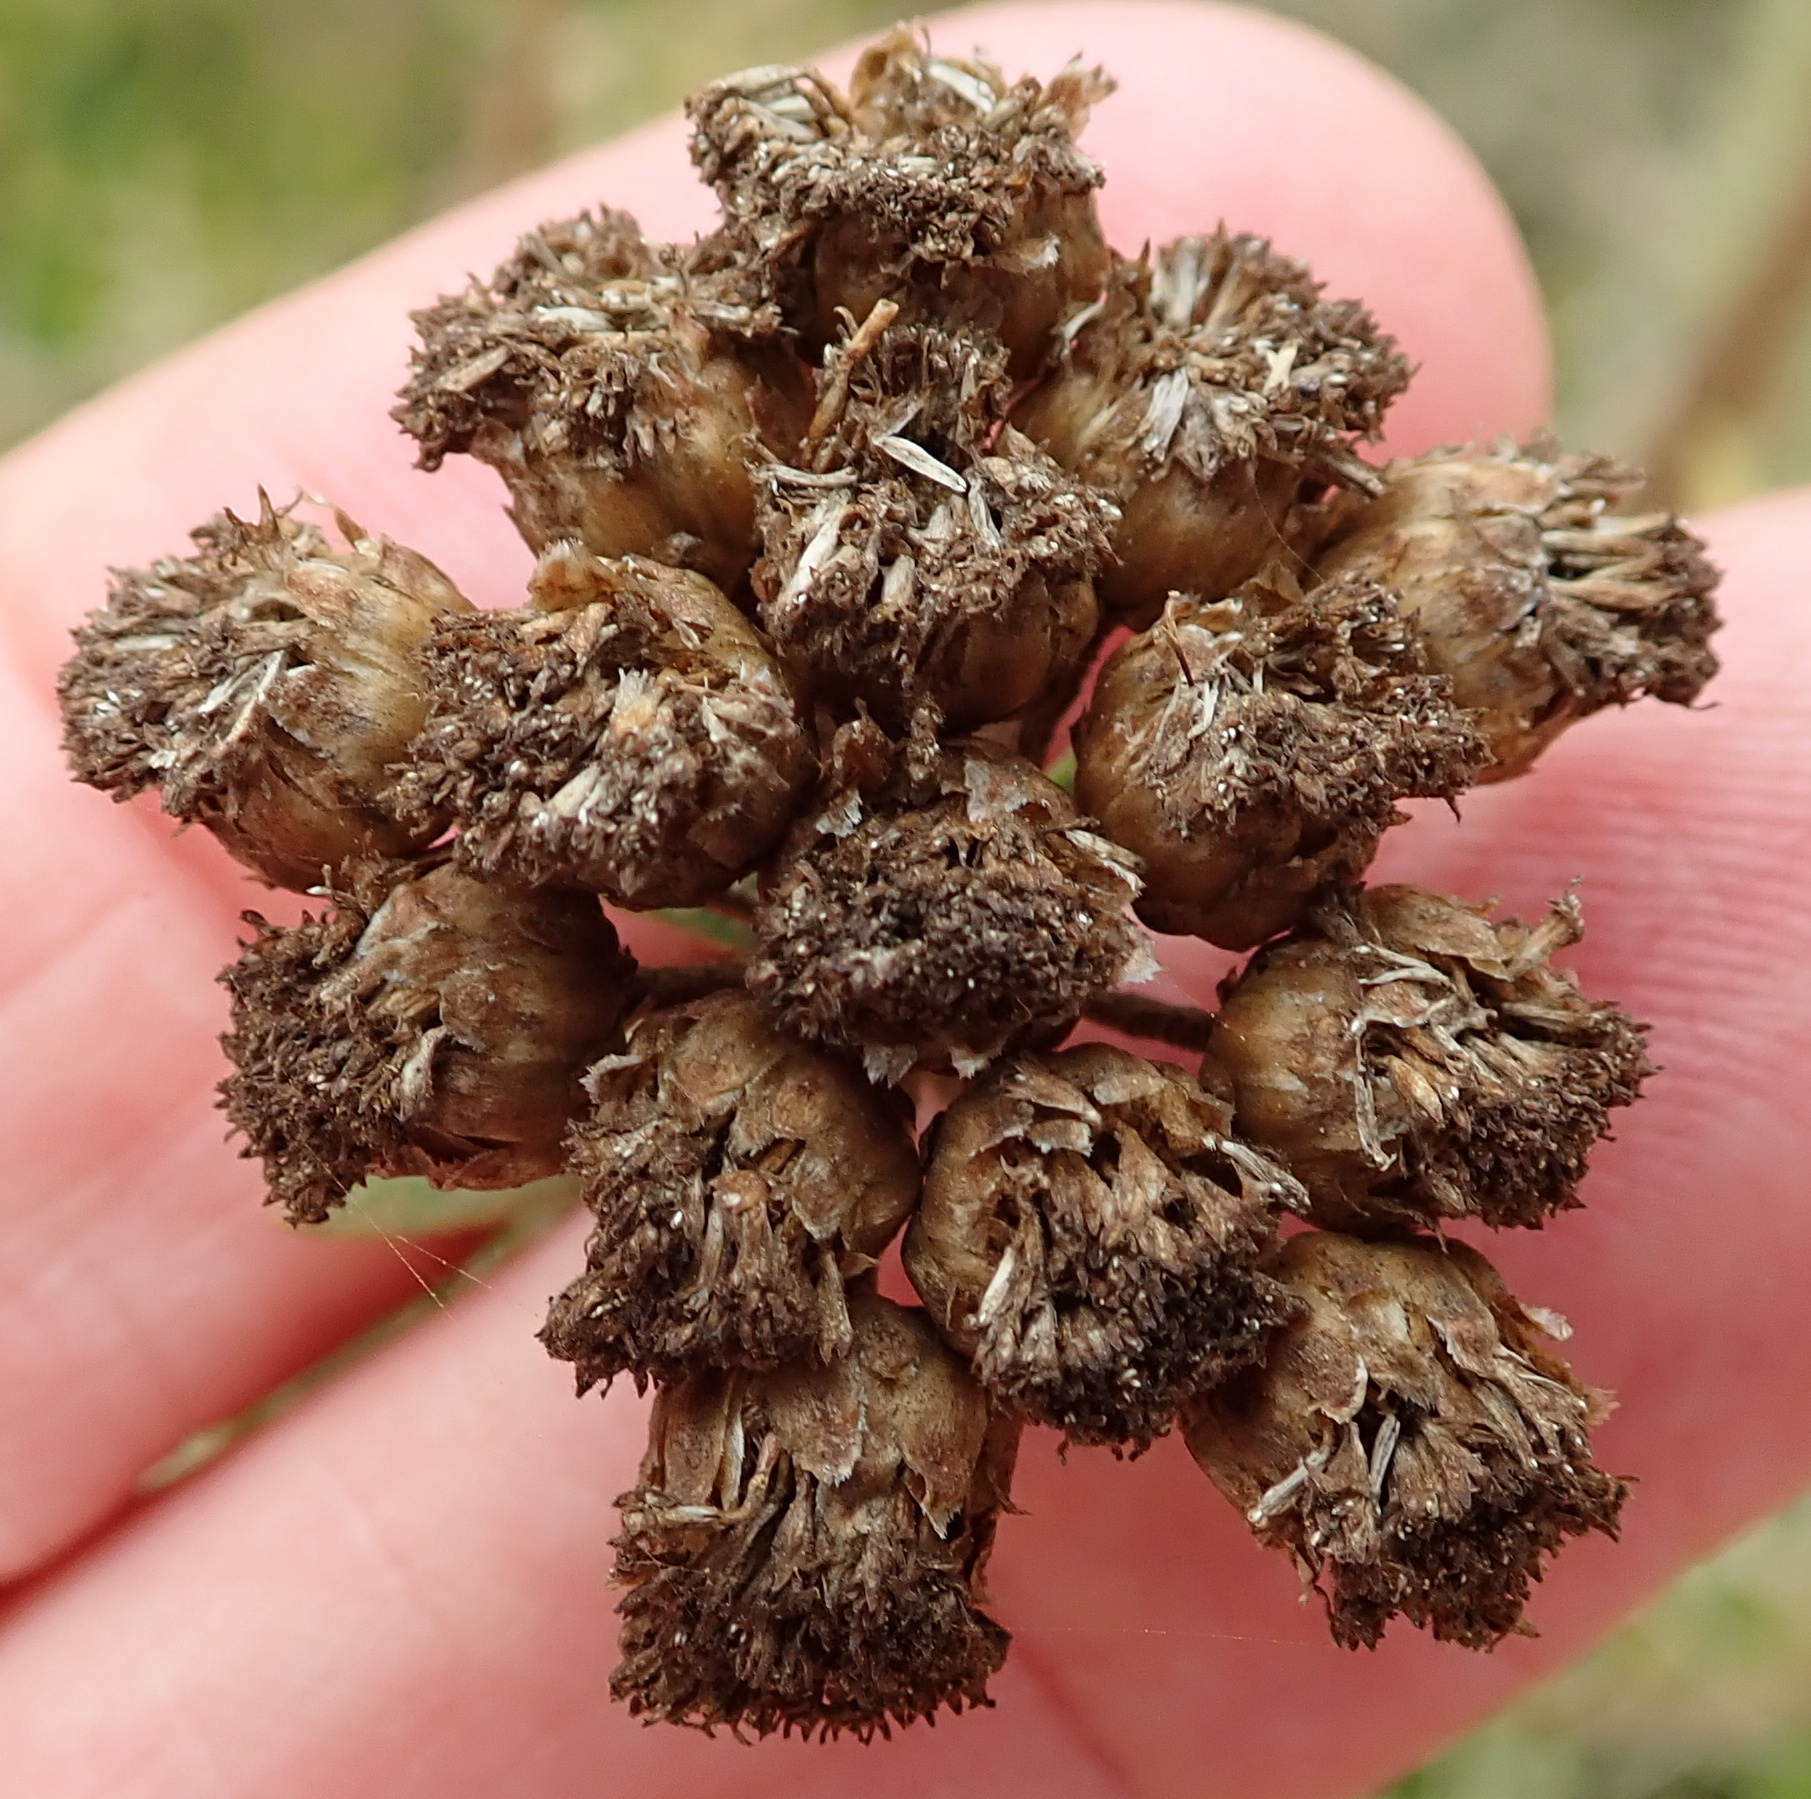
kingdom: Plantae
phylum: Tracheophyta
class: Magnoliopsida
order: Asterales
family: Asteraceae
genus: Athanasia
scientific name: Athanasia trifurcata
